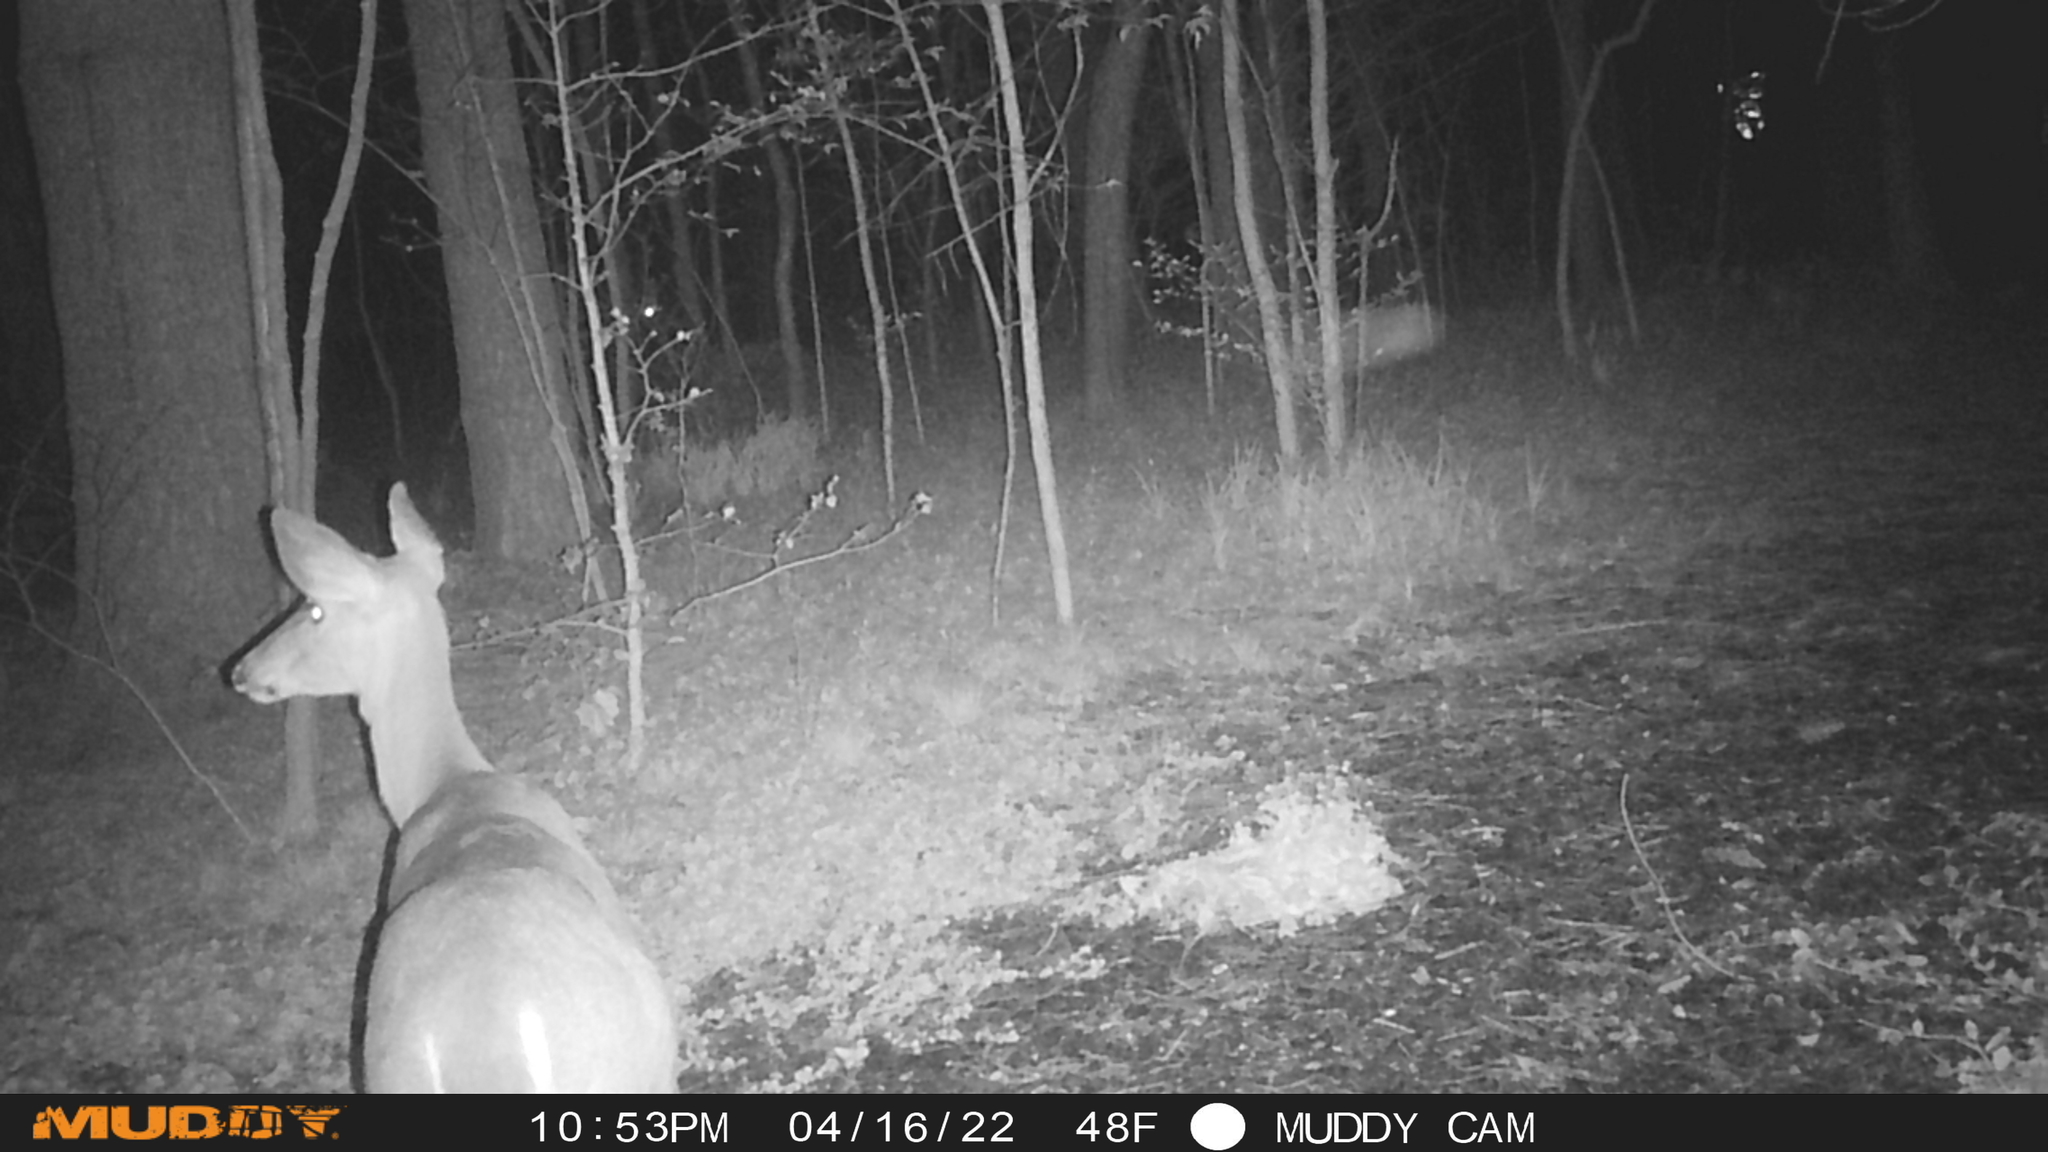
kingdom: Animalia
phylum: Chordata
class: Mammalia
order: Artiodactyla
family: Cervidae
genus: Odocoileus
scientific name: Odocoileus virginianus
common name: White-tailed deer
